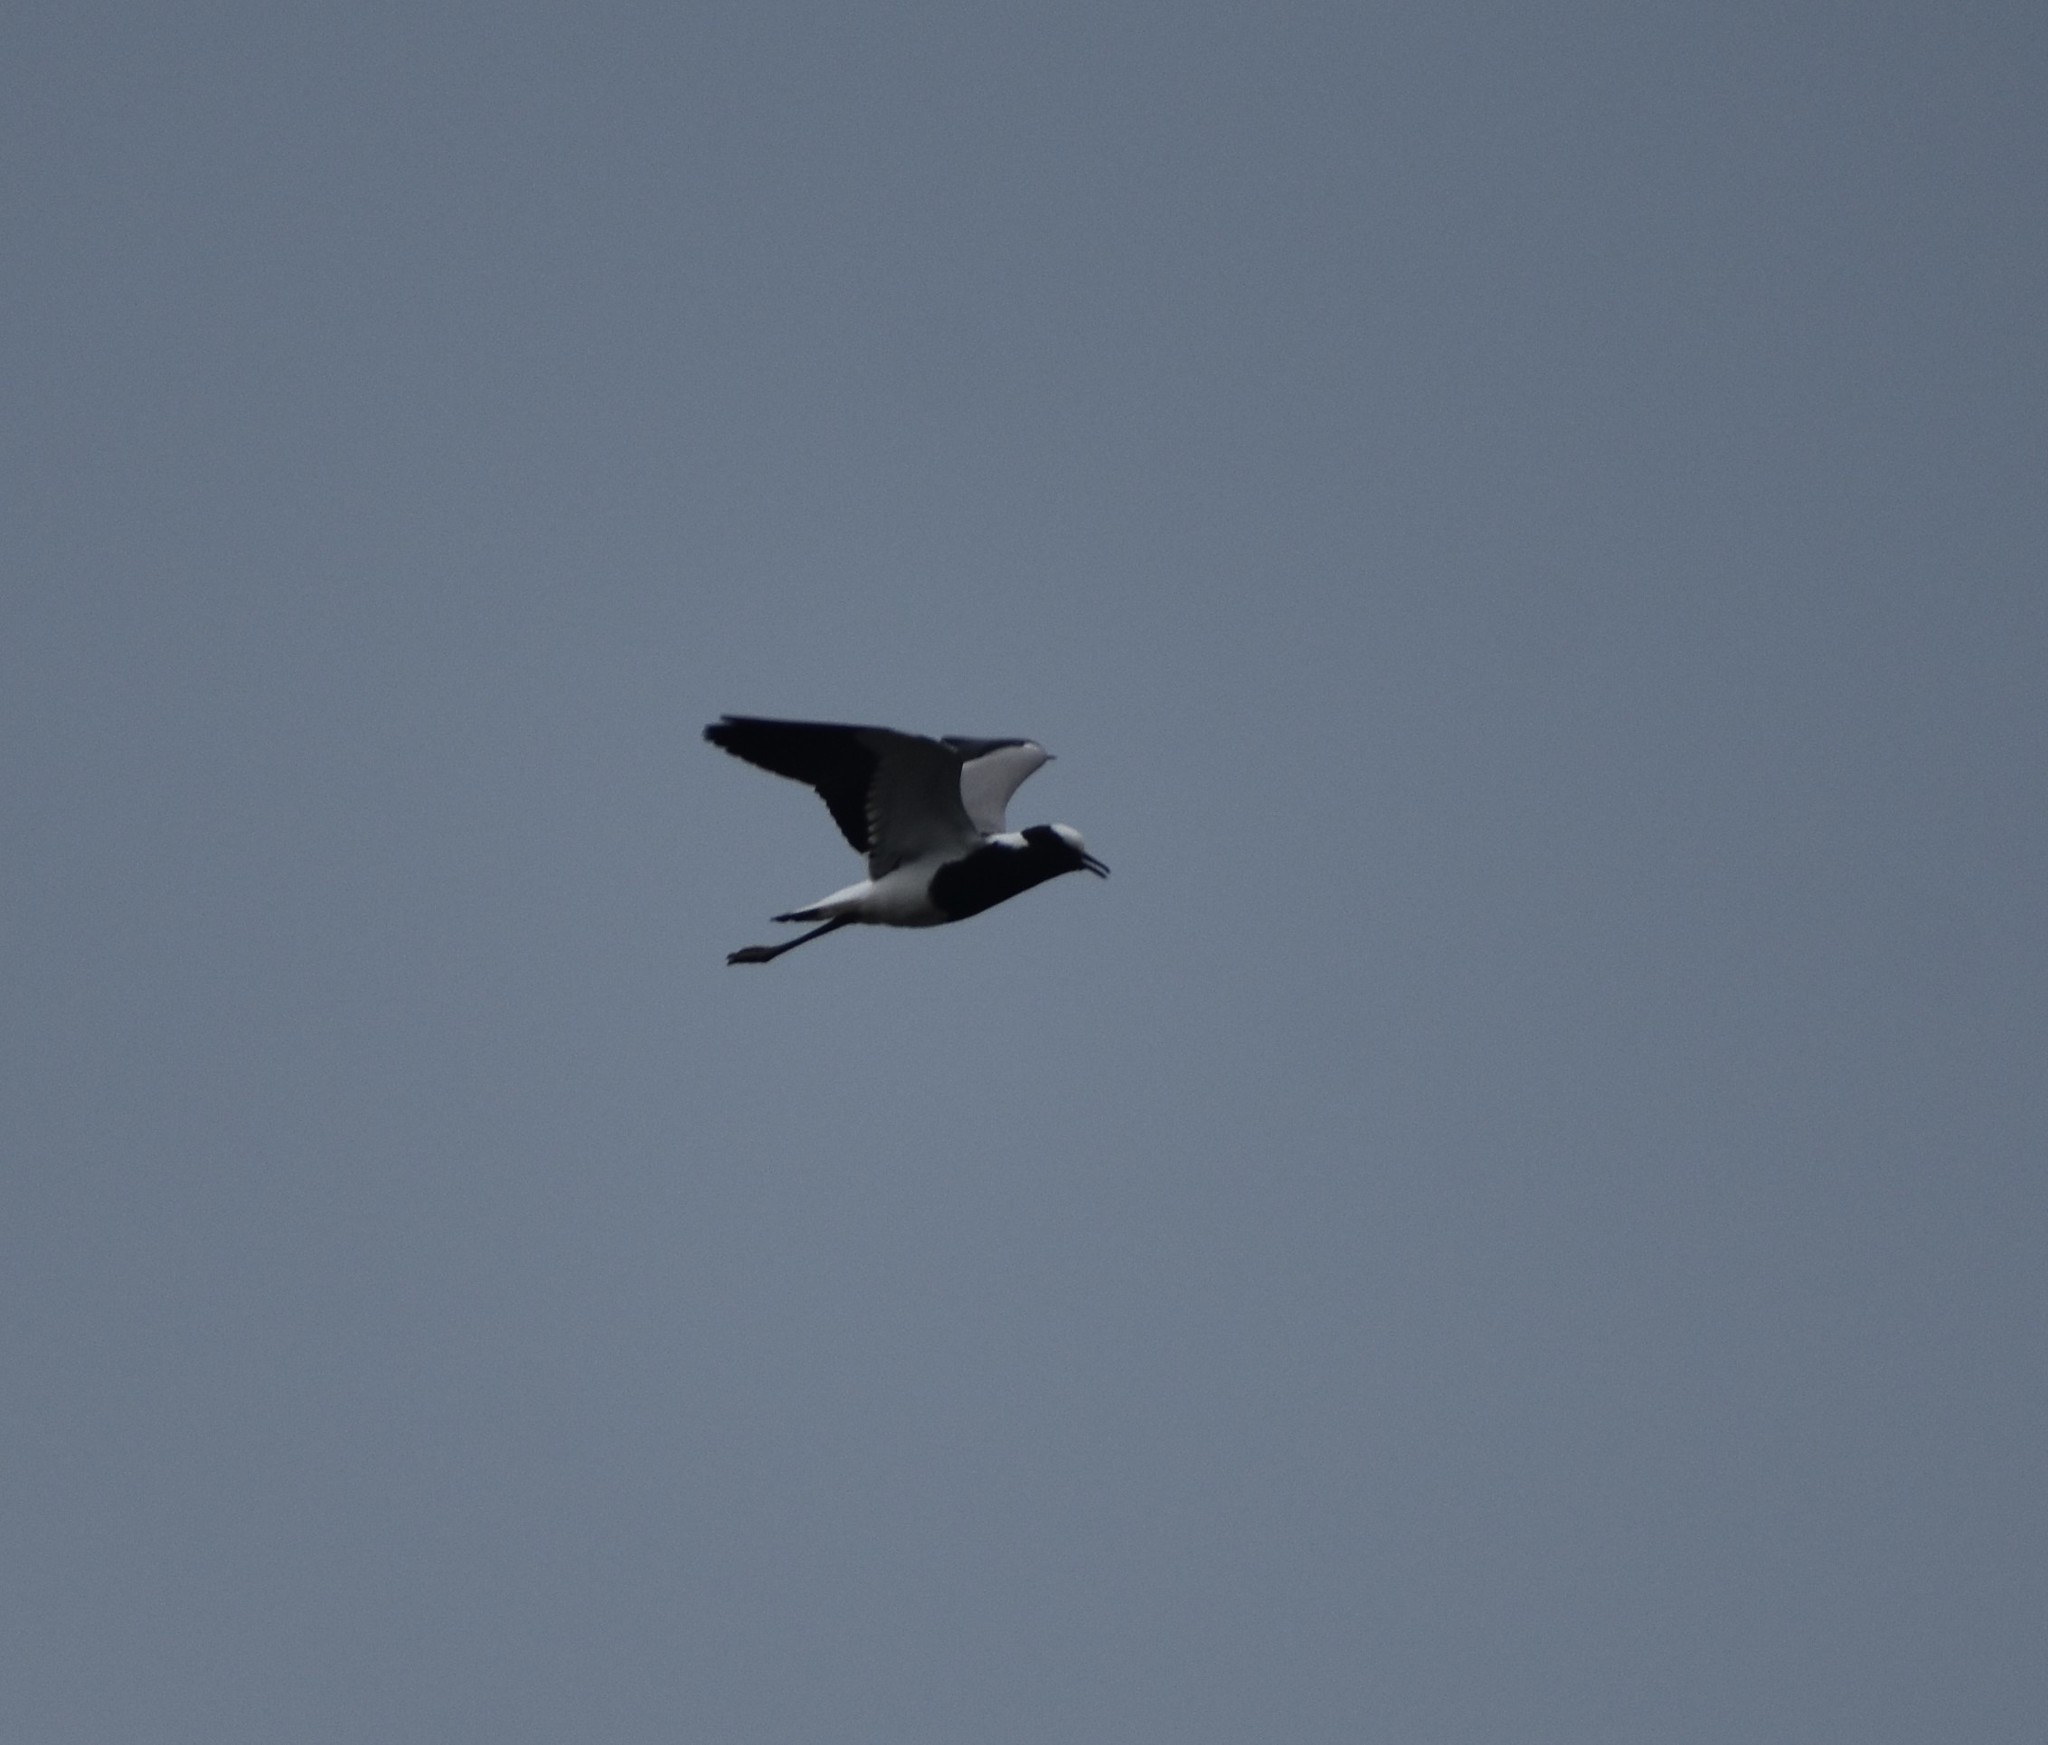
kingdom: Animalia
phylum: Chordata
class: Aves
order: Charadriiformes
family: Charadriidae
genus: Vanellus
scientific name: Vanellus armatus
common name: Blacksmith lapwing
